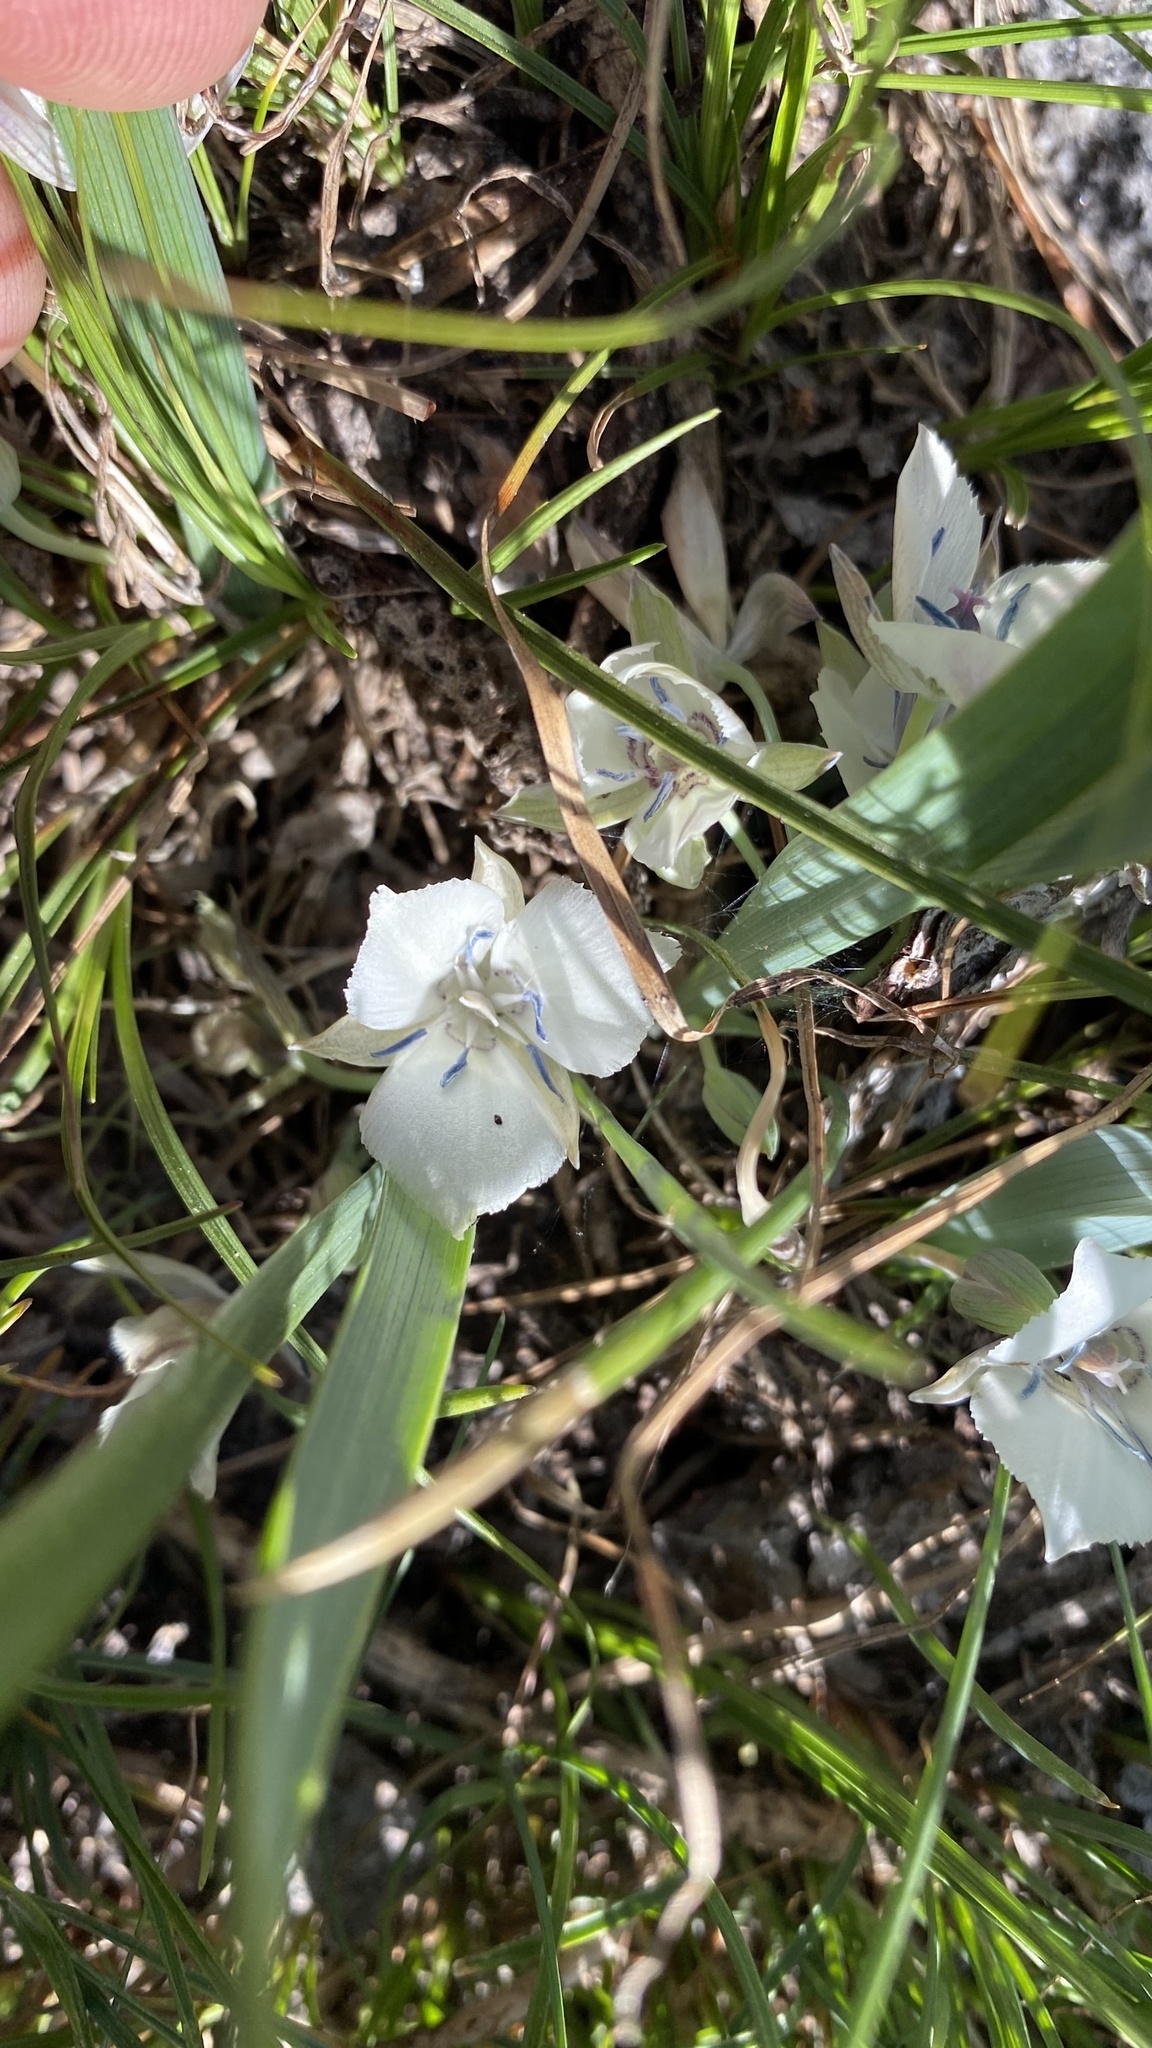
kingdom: Plantae
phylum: Tracheophyta
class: Liliopsida
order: Liliales
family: Liliaceae
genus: Calochortus
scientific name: Calochortus minimus
